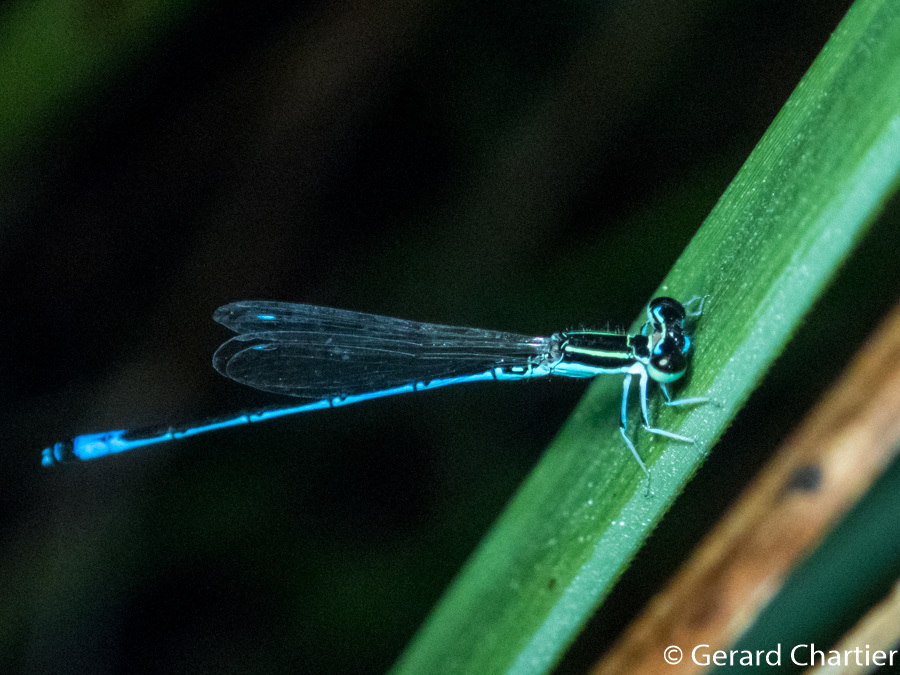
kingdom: Animalia
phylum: Arthropoda
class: Insecta
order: Odonata
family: Coenagrionidae
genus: Agriocnemis
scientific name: Agriocnemis nana
